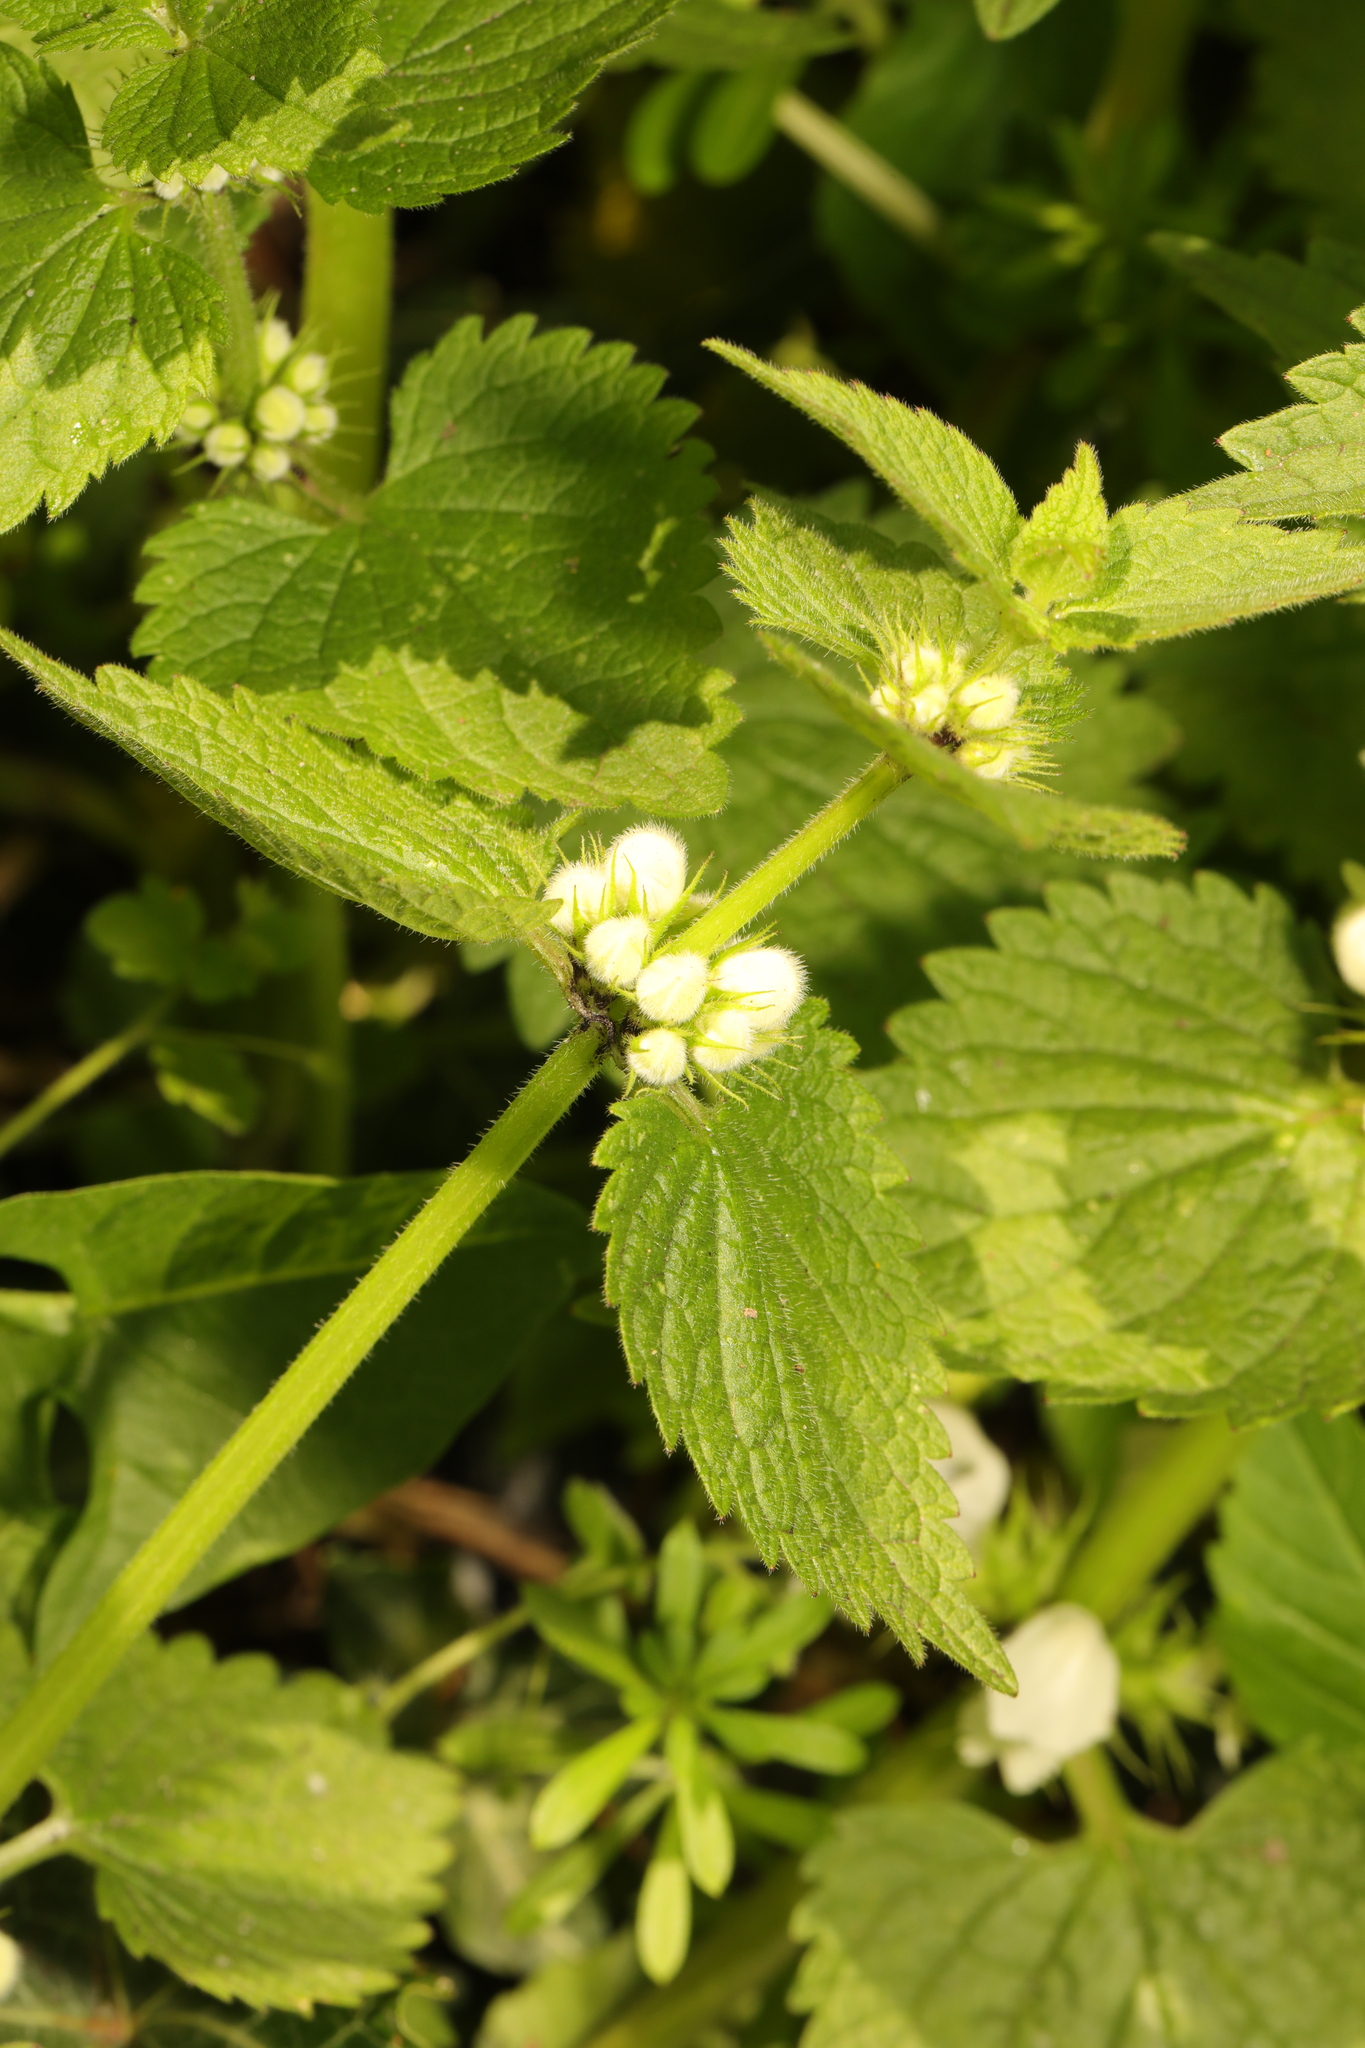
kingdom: Plantae
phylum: Tracheophyta
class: Magnoliopsida
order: Lamiales
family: Lamiaceae
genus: Lamium
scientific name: Lamium album
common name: White dead-nettle
